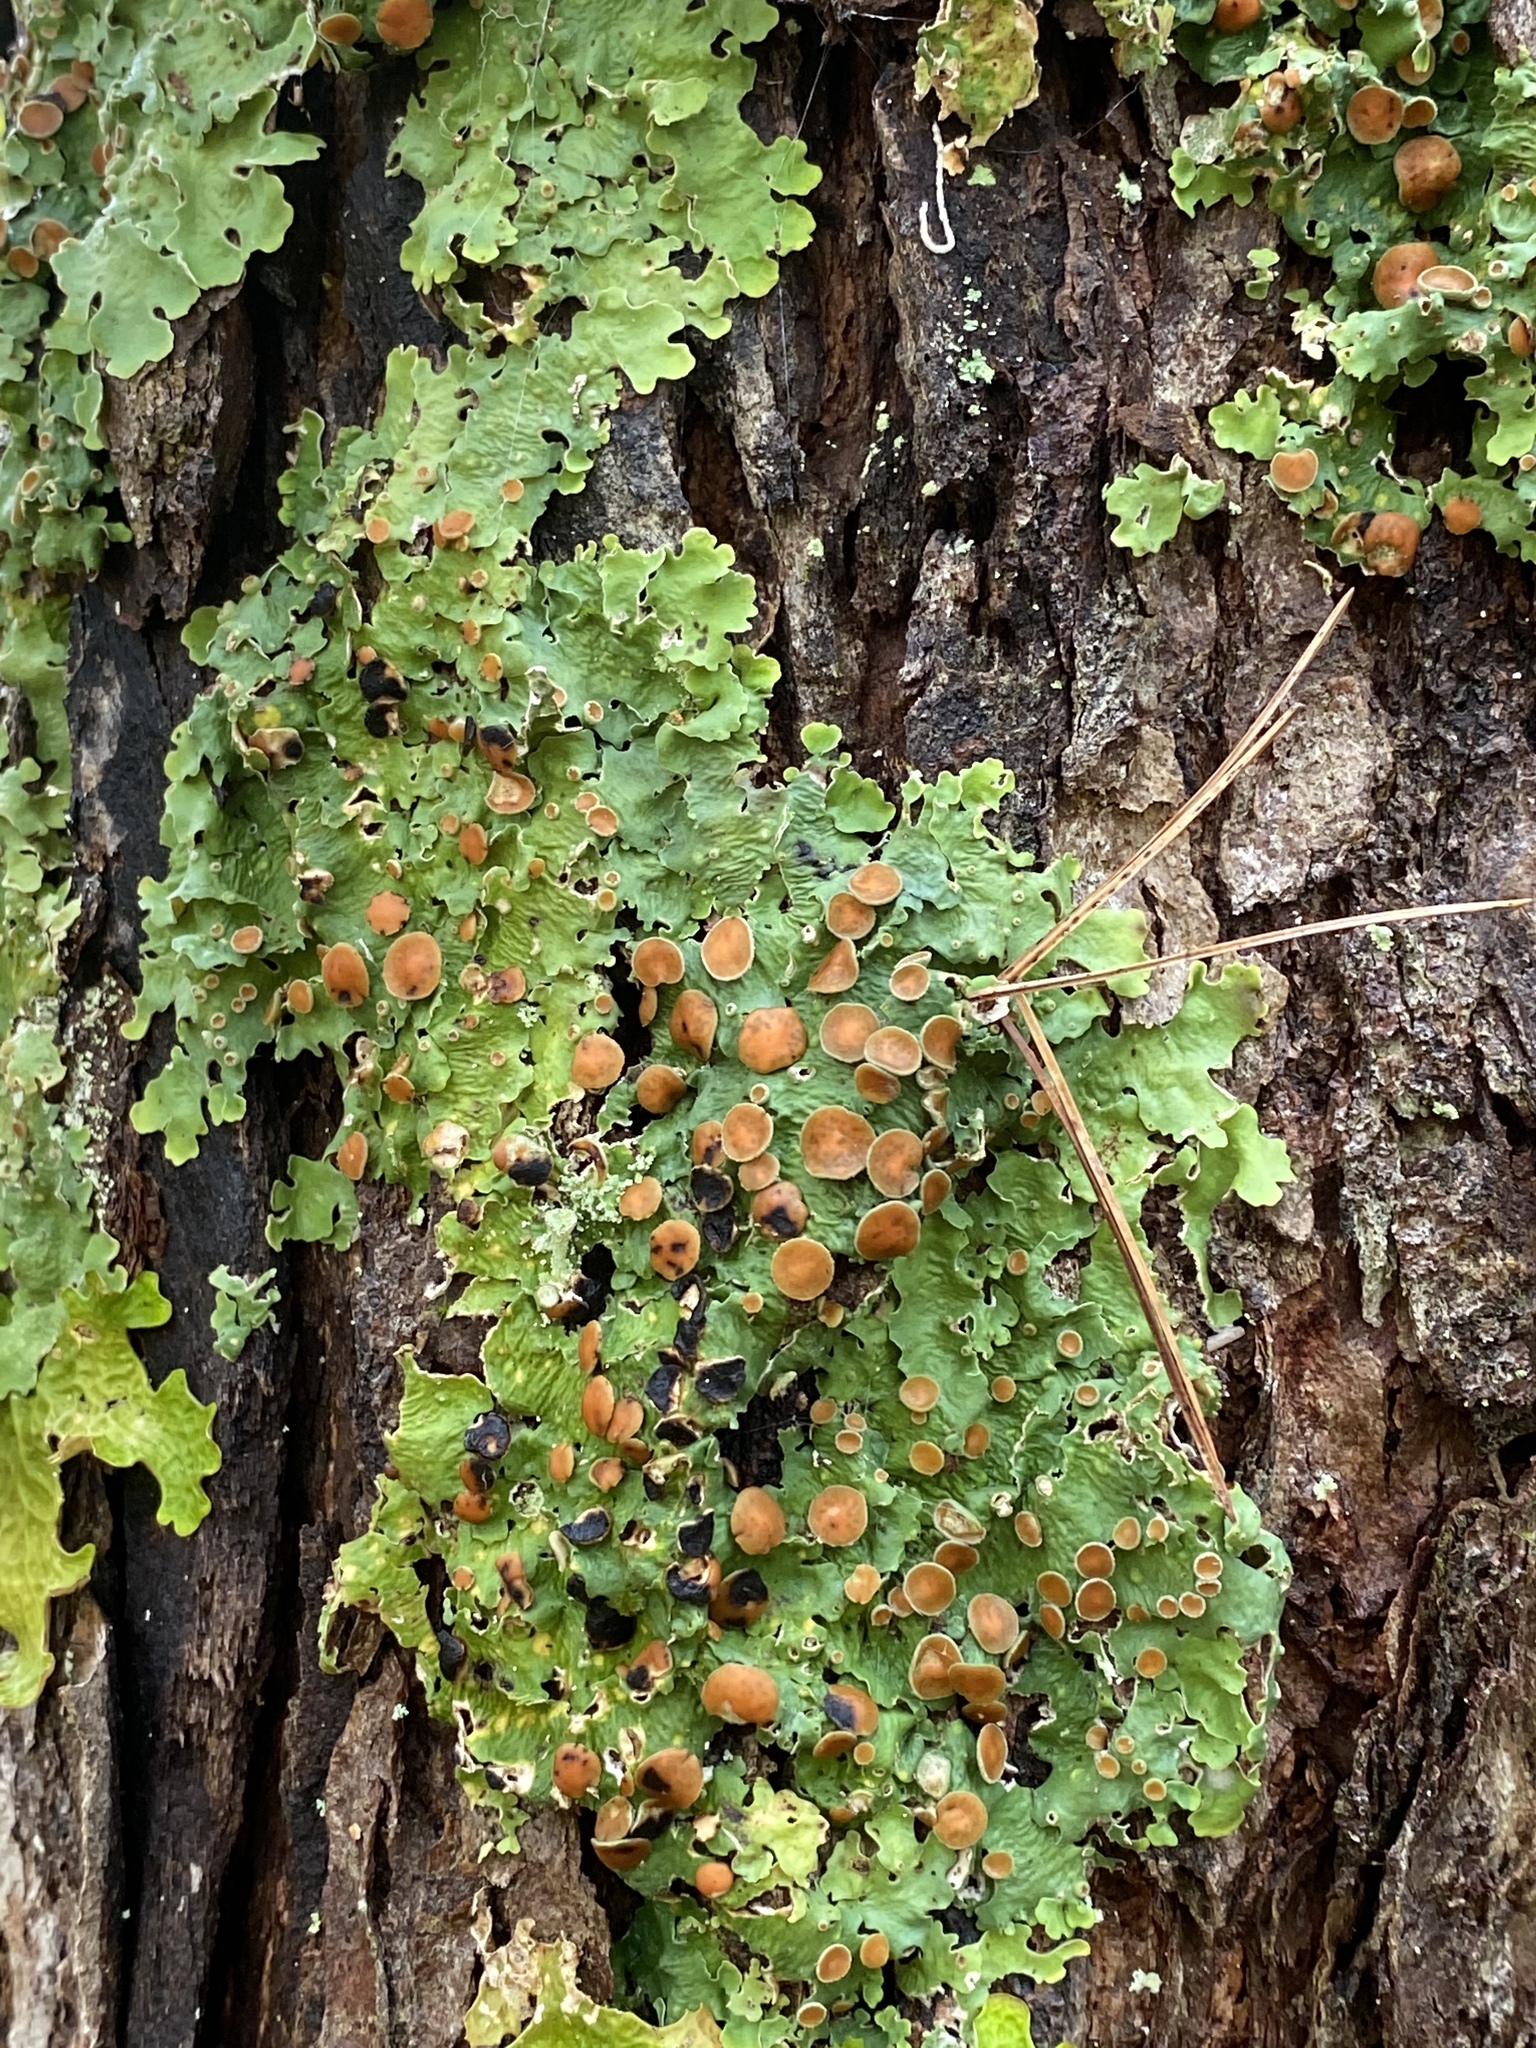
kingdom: Fungi
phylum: Ascomycota
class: Lecanoromycetes
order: Peltigerales
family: Lobariaceae
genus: Ricasolia
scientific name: Ricasolia quercizans
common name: Smooth lungwort
